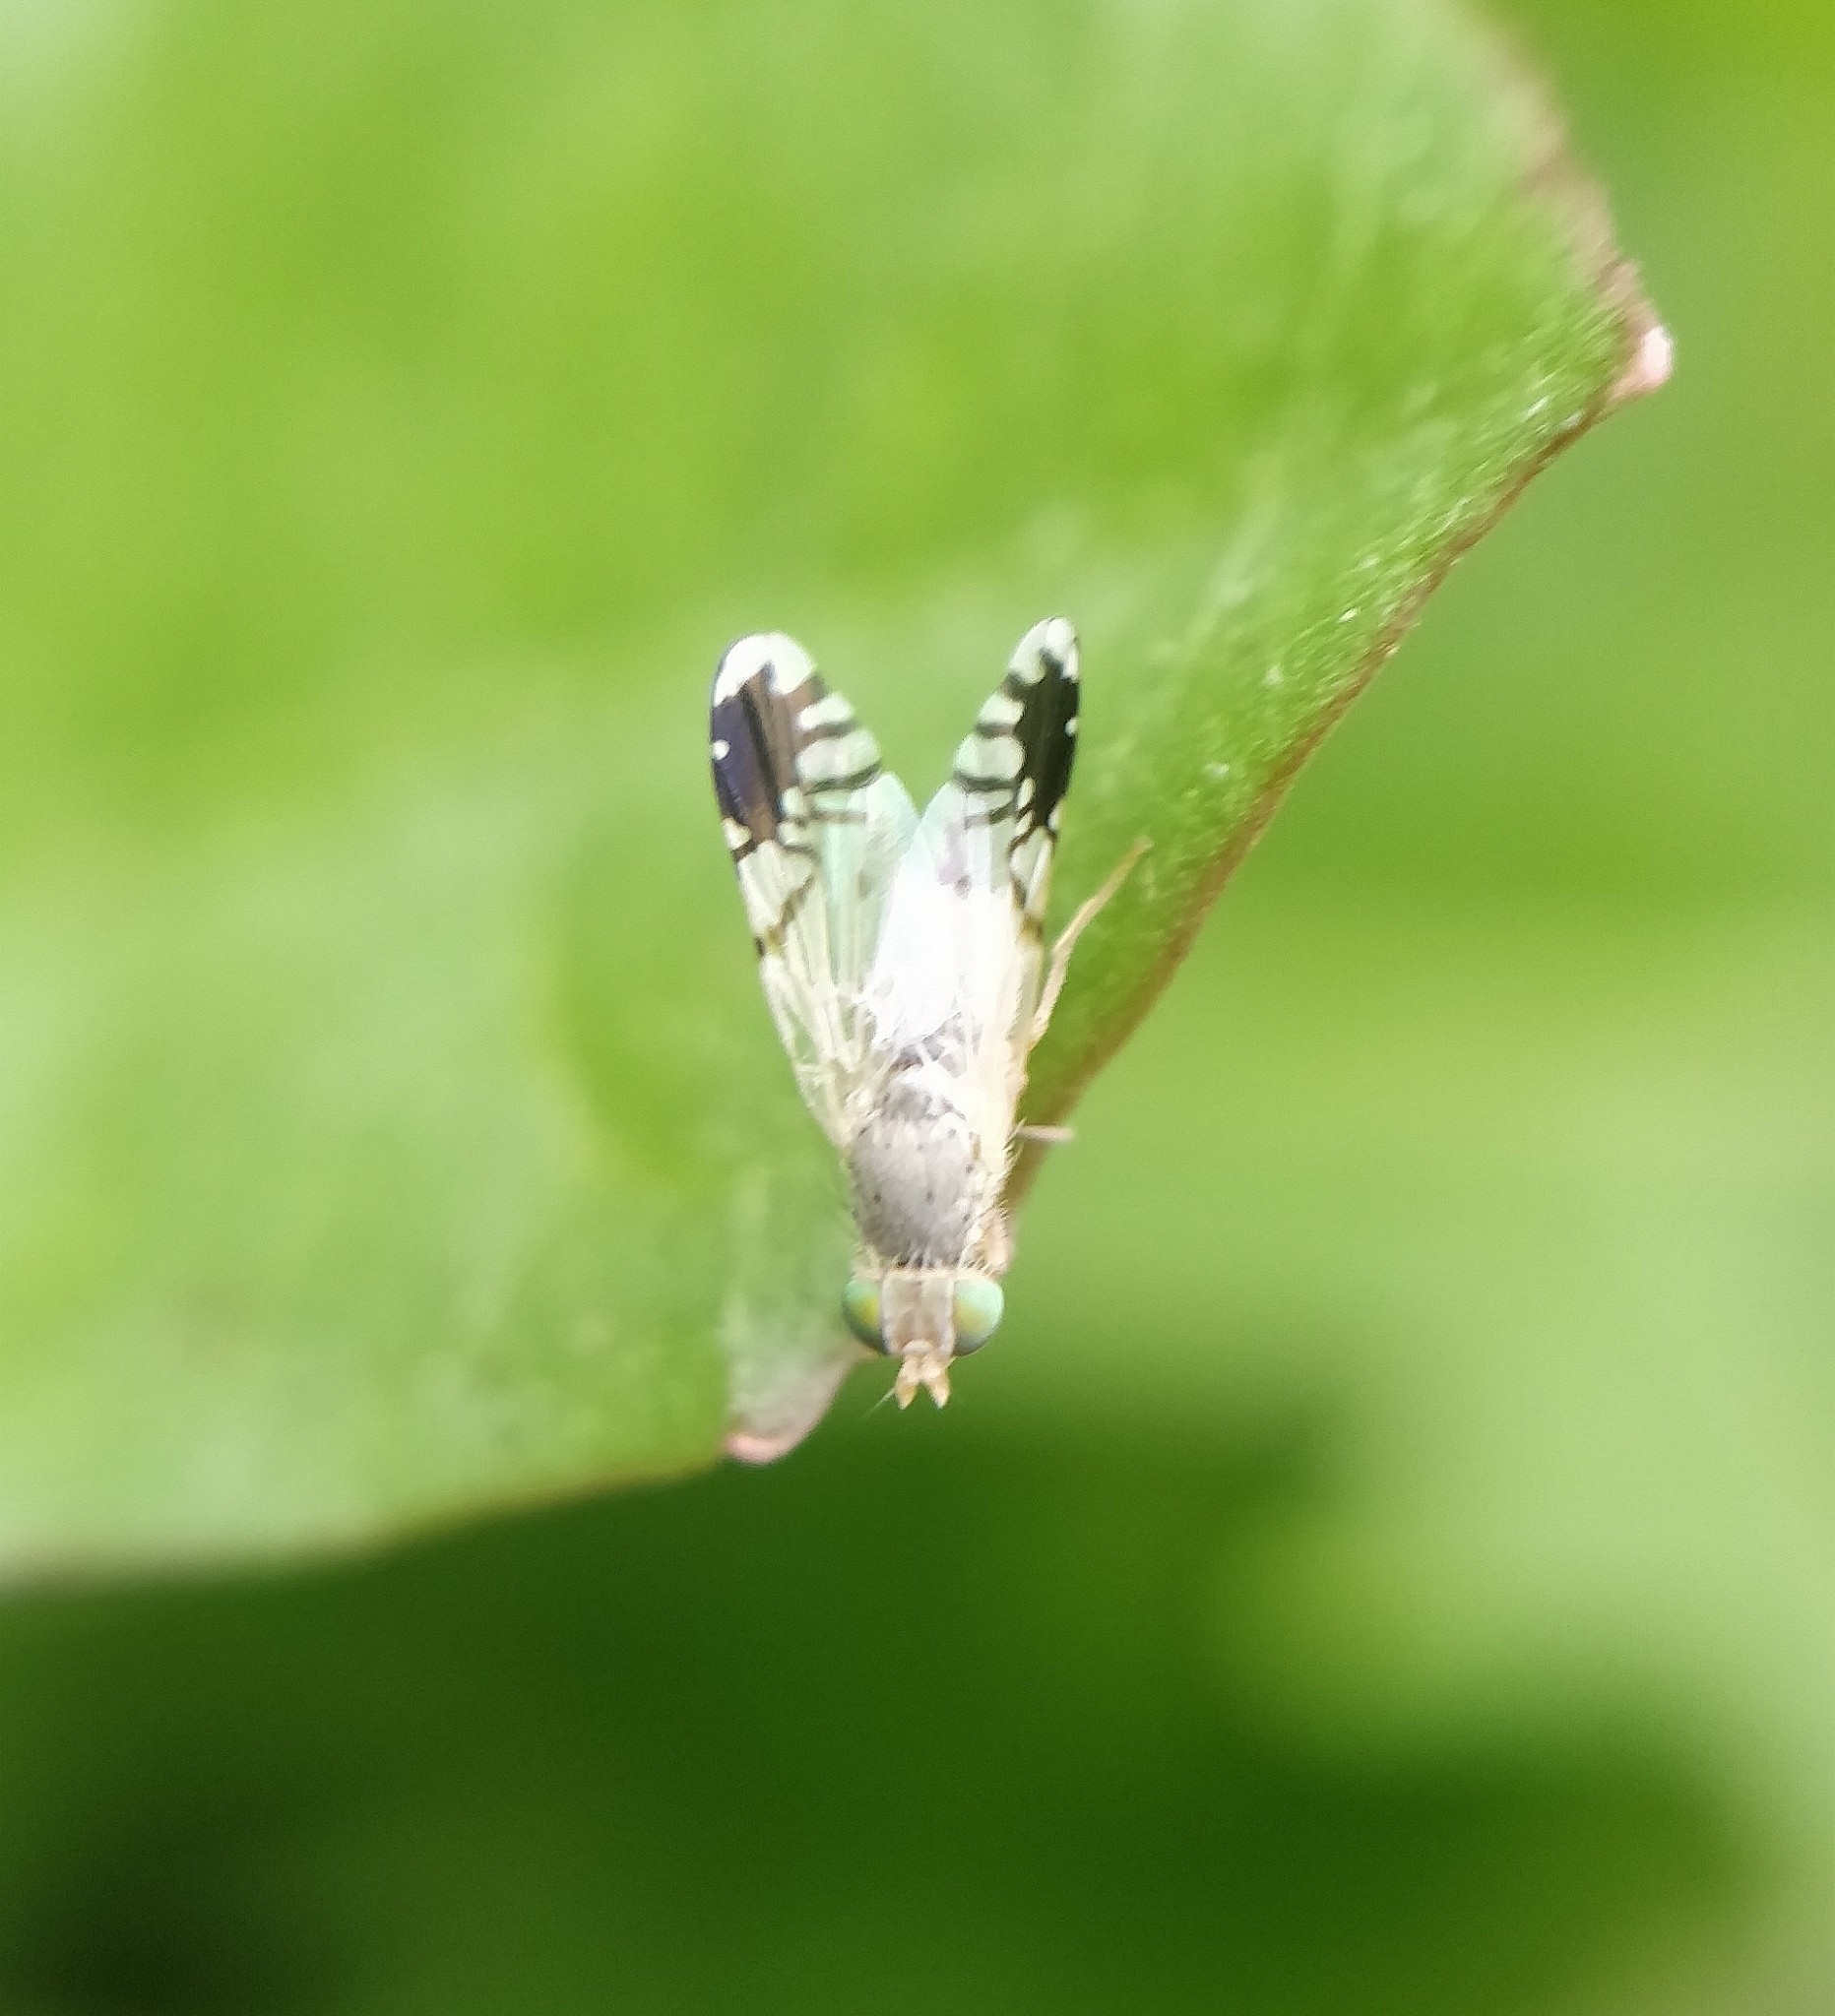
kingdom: Animalia
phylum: Arthropoda
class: Insecta
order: Diptera
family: Tephritidae
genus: Trupanea
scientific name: Trupanea amoena
